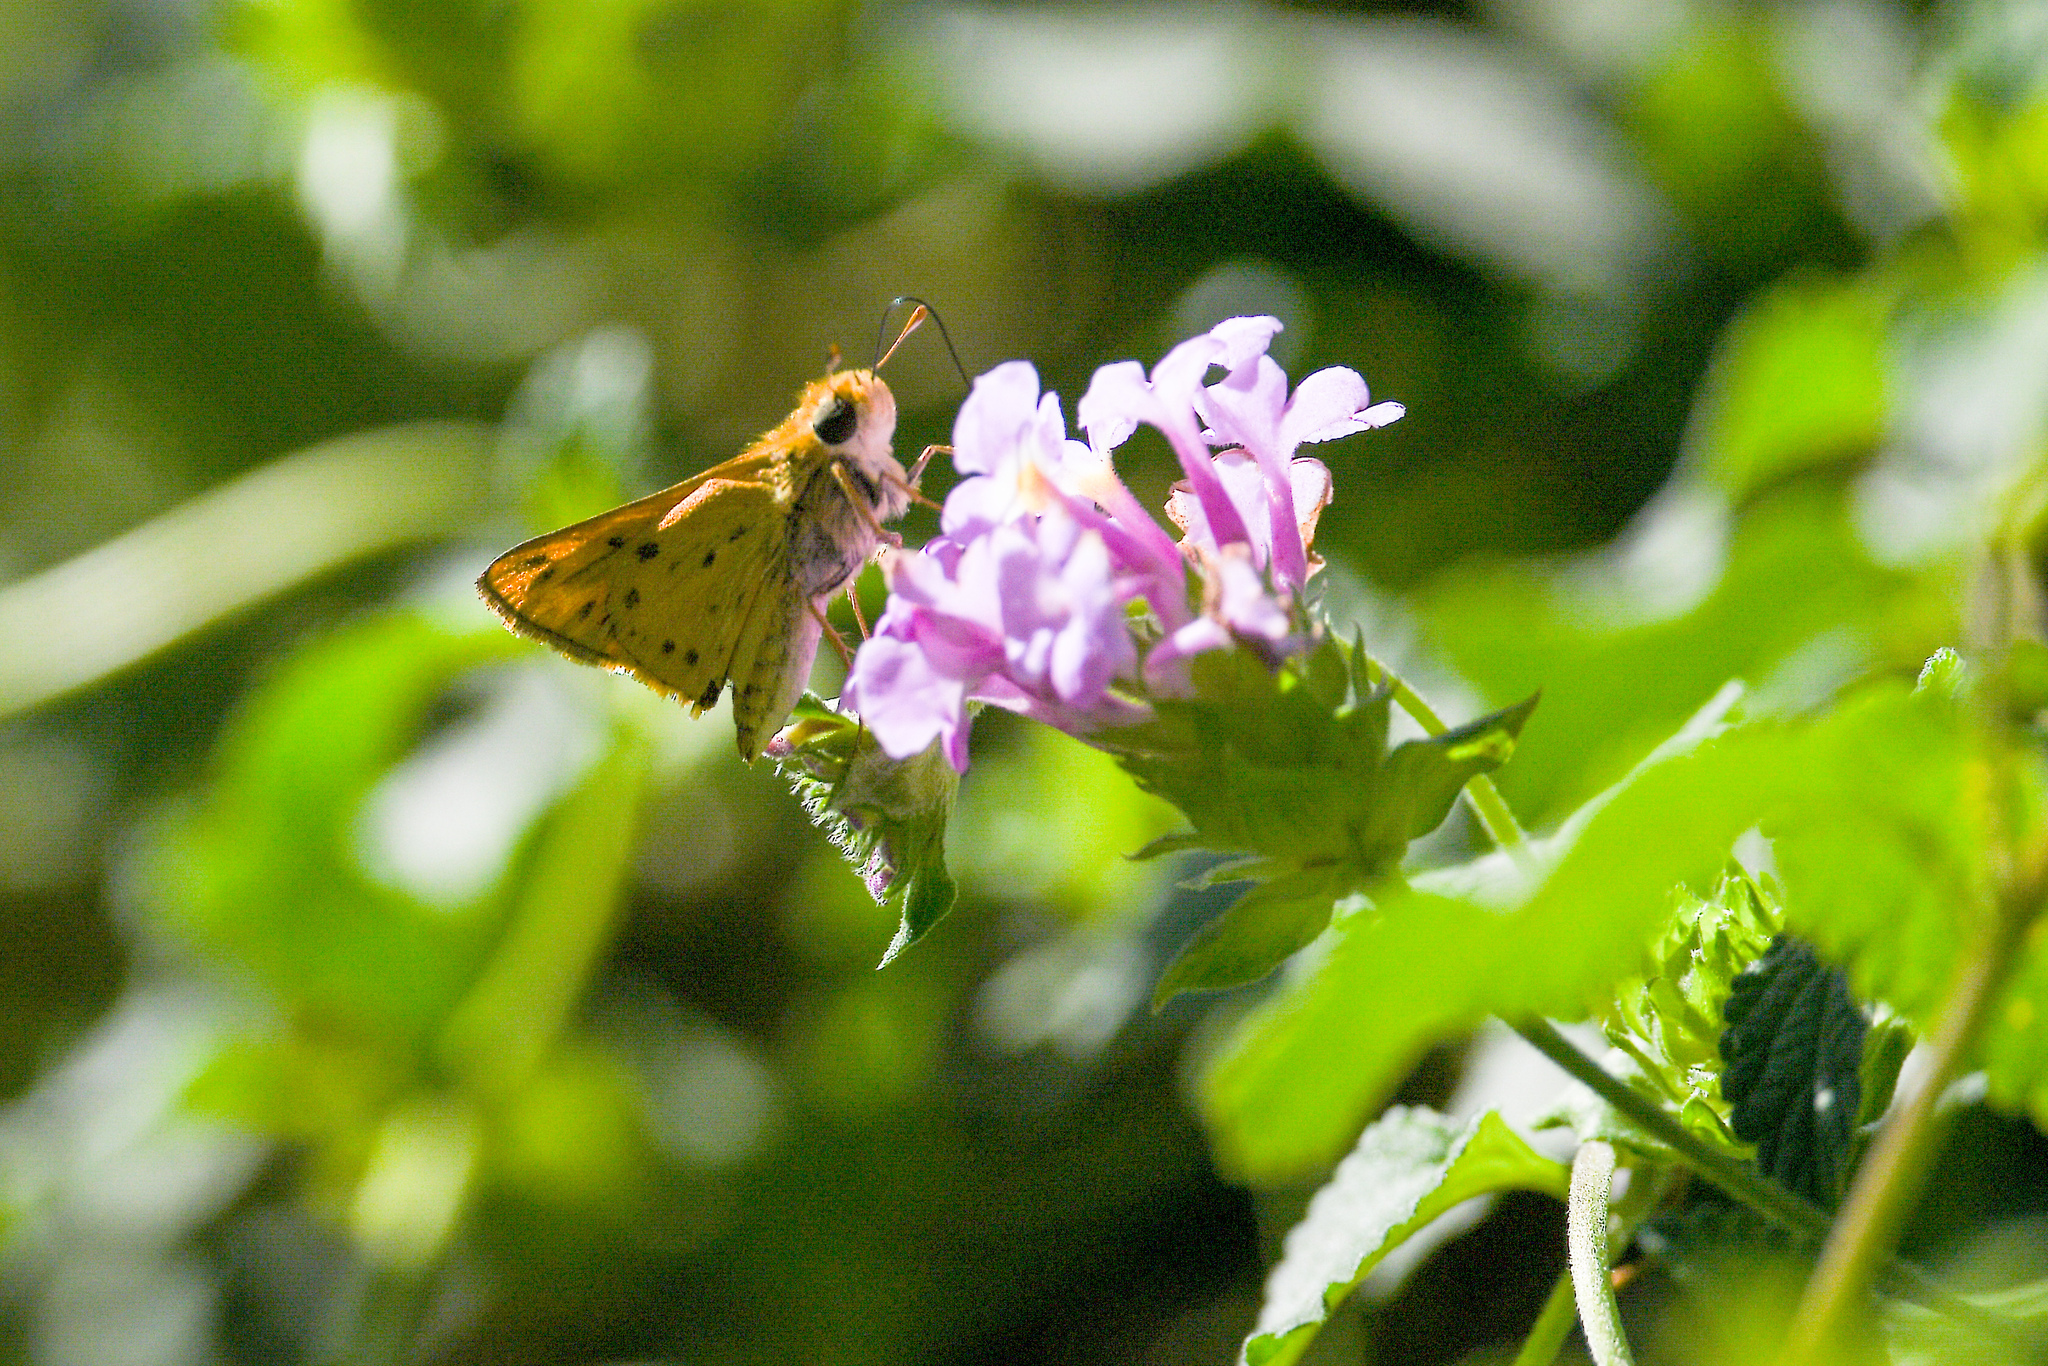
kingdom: Animalia
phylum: Arthropoda
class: Insecta
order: Lepidoptera
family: Hesperiidae
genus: Hylephila
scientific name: Hylephila phyleus
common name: Fiery skipper
